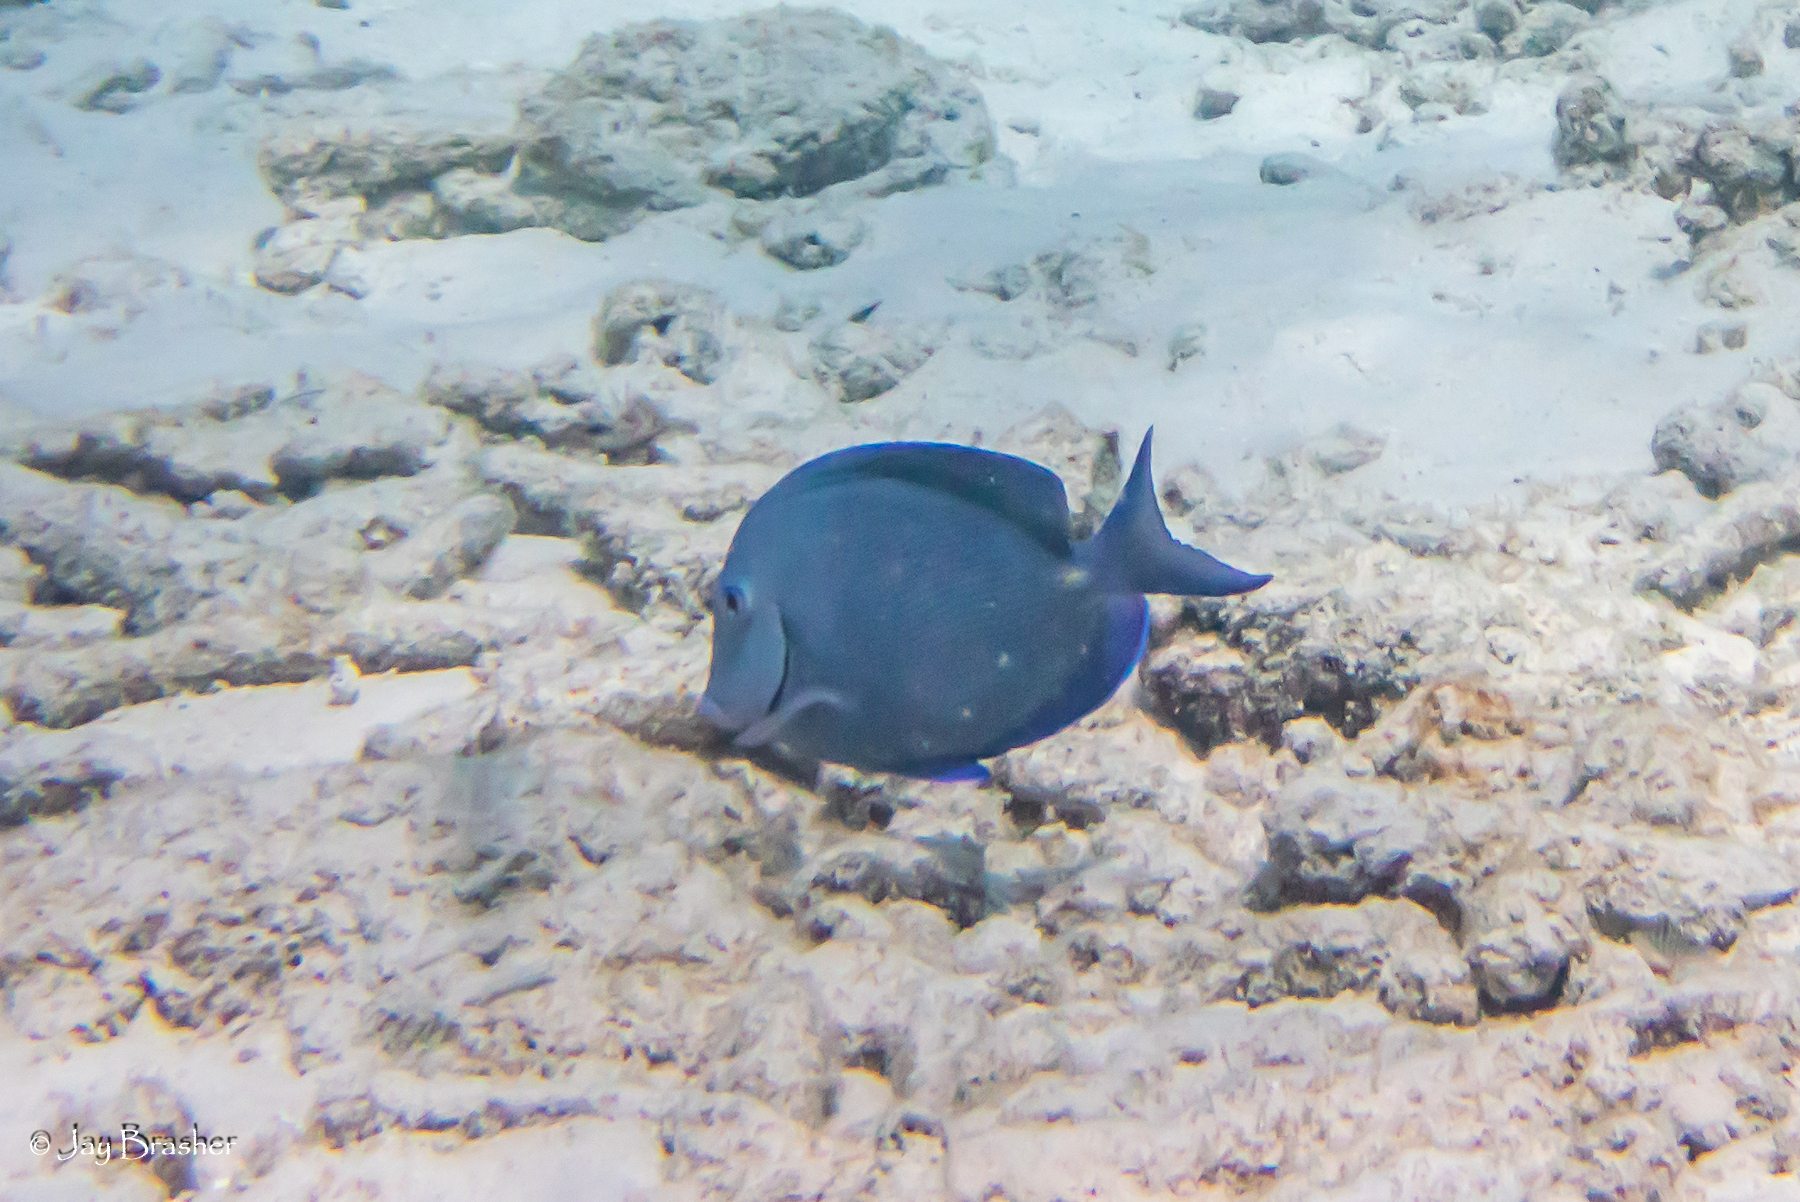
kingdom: Animalia
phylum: Chordata
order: Perciformes
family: Acanthuridae
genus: Acanthurus
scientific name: Acanthurus coeruleus
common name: Blue tang
